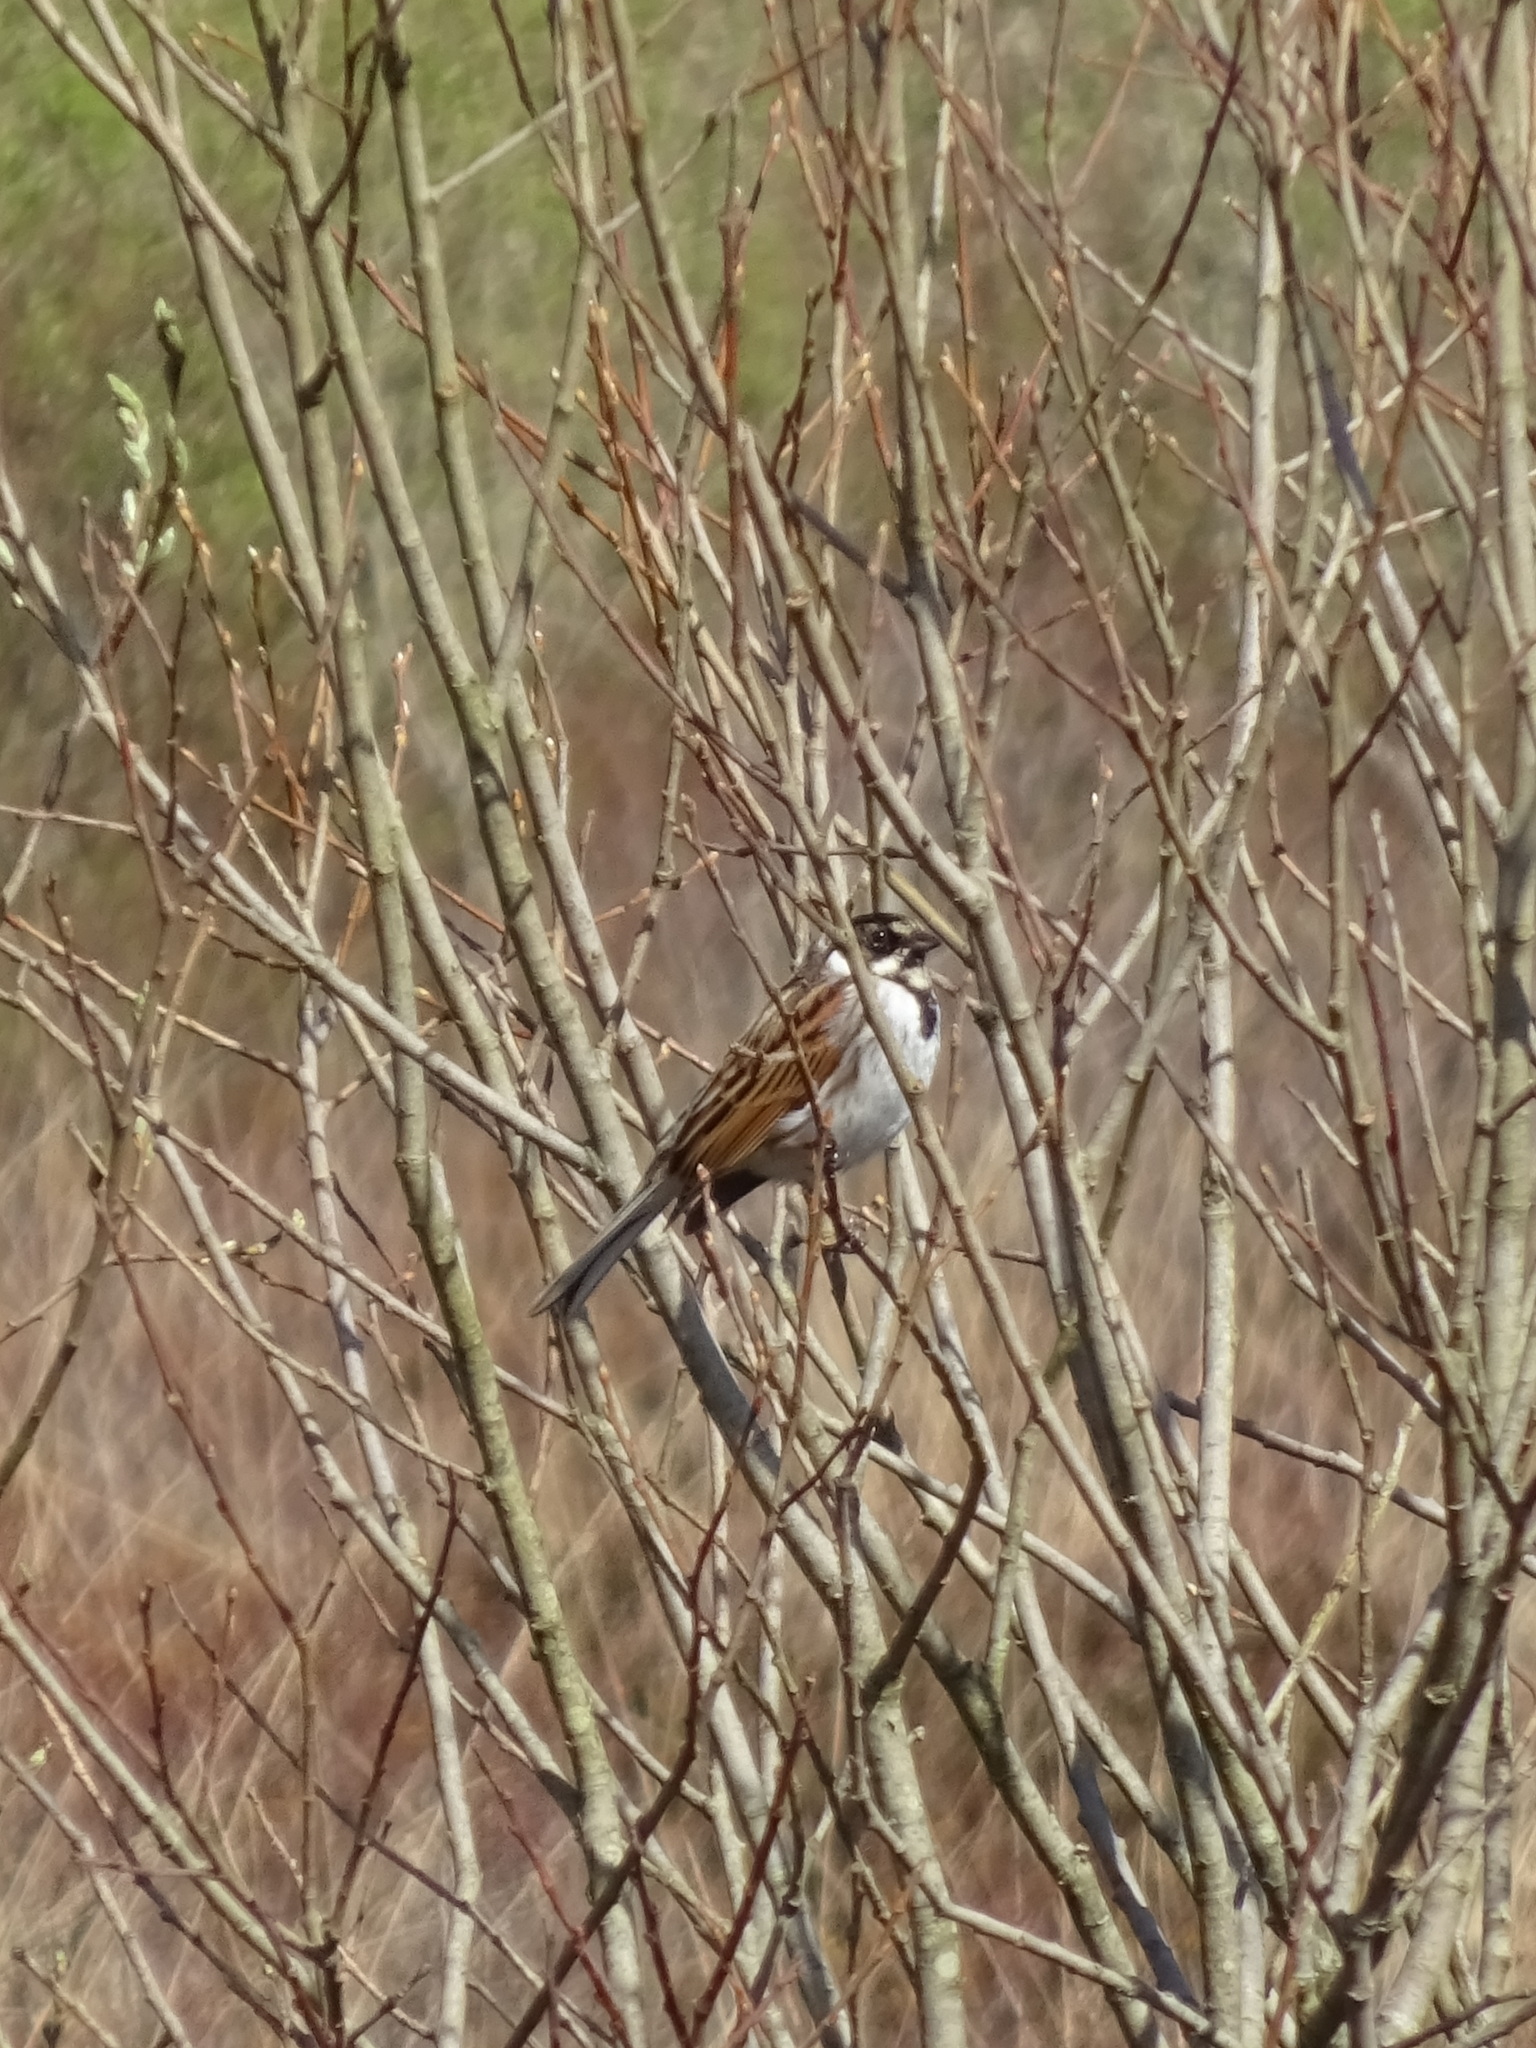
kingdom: Animalia
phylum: Chordata
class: Aves
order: Passeriformes
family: Emberizidae
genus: Emberiza
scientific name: Emberiza schoeniclus
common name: Reed bunting
